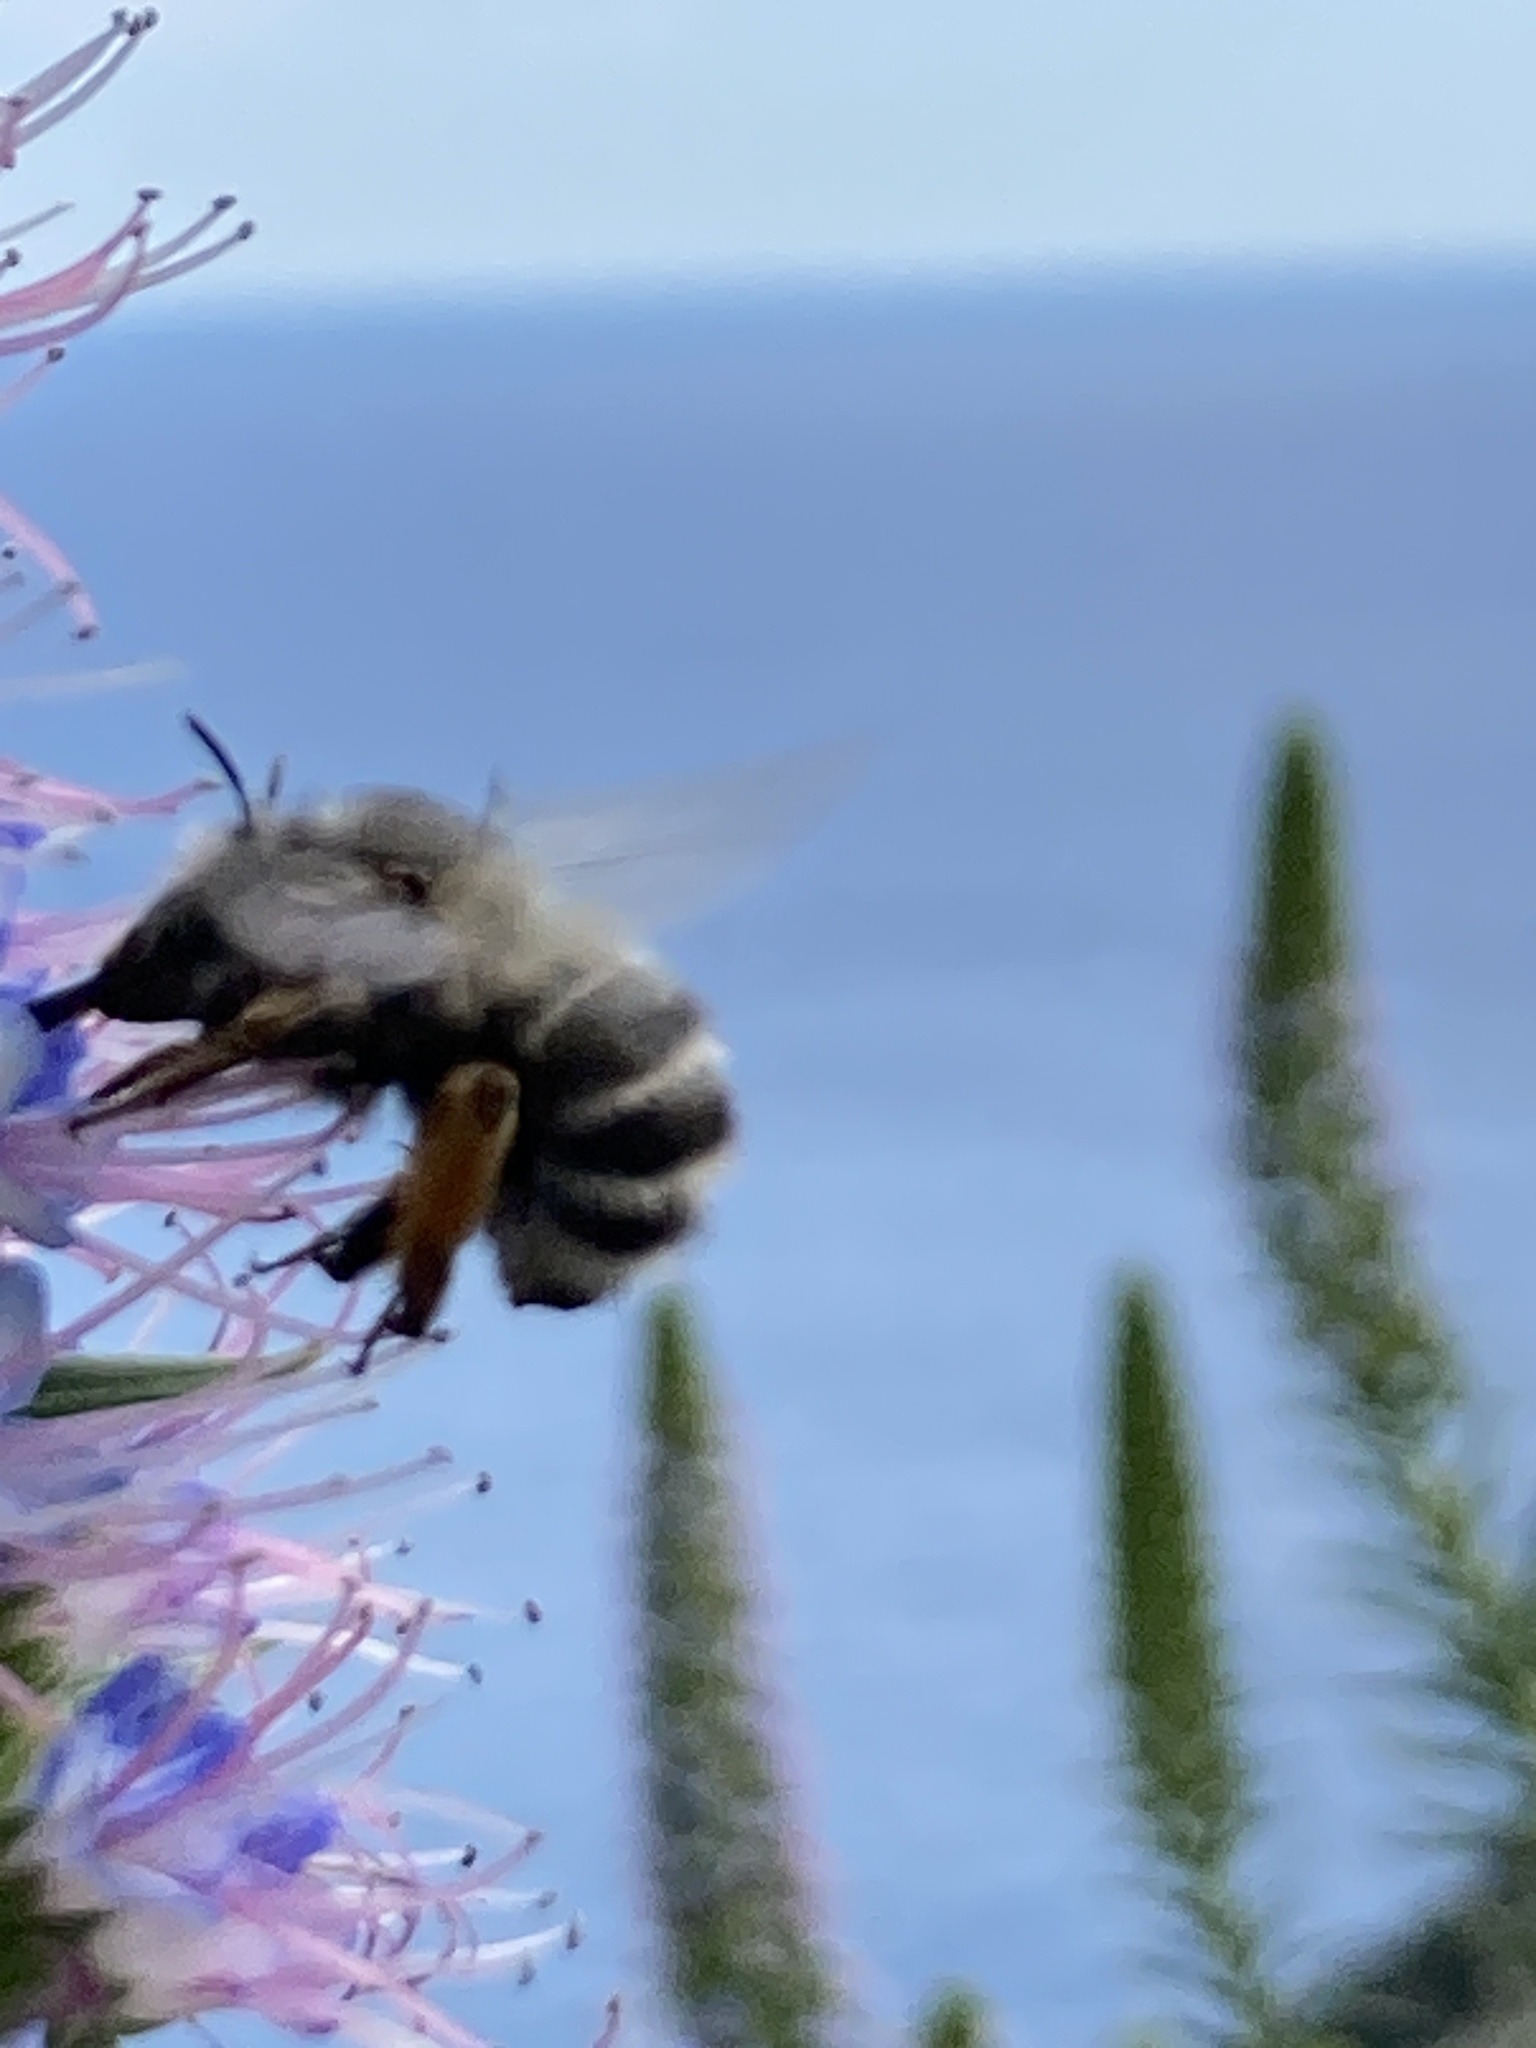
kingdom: Animalia
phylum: Arthropoda
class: Insecta
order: Hymenoptera
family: Apidae
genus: Anthophora
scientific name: Anthophora dispar
